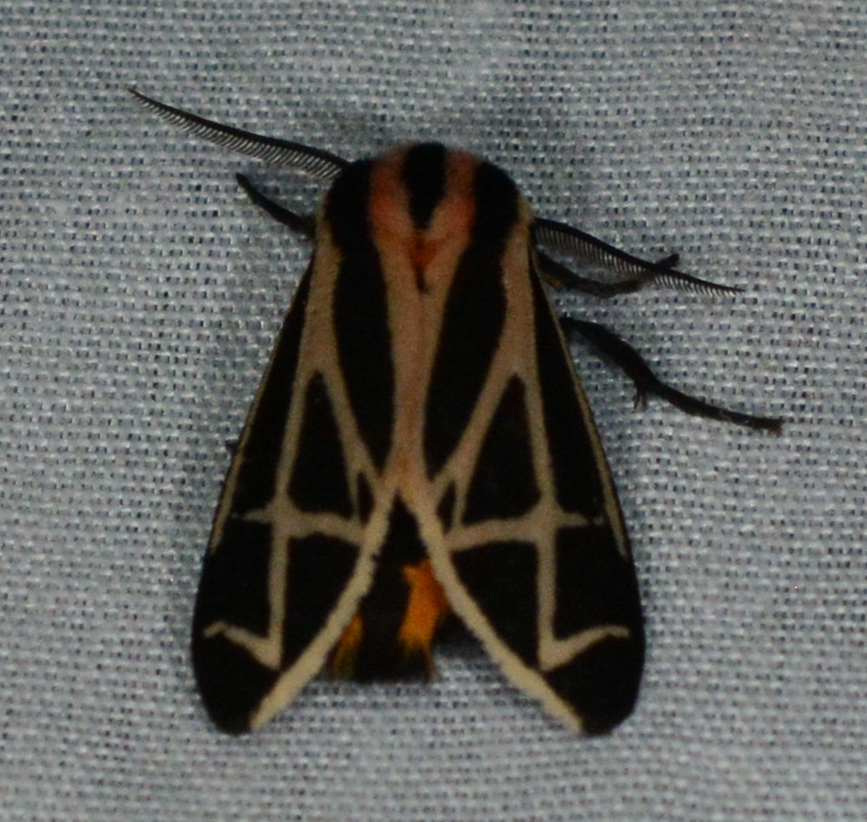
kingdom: Animalia
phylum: Arthropoda
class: Insecta
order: Lepidoptera
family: Erebidae
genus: Apantesis
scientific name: Apantesis phalerata
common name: Harnessed tiger moth
